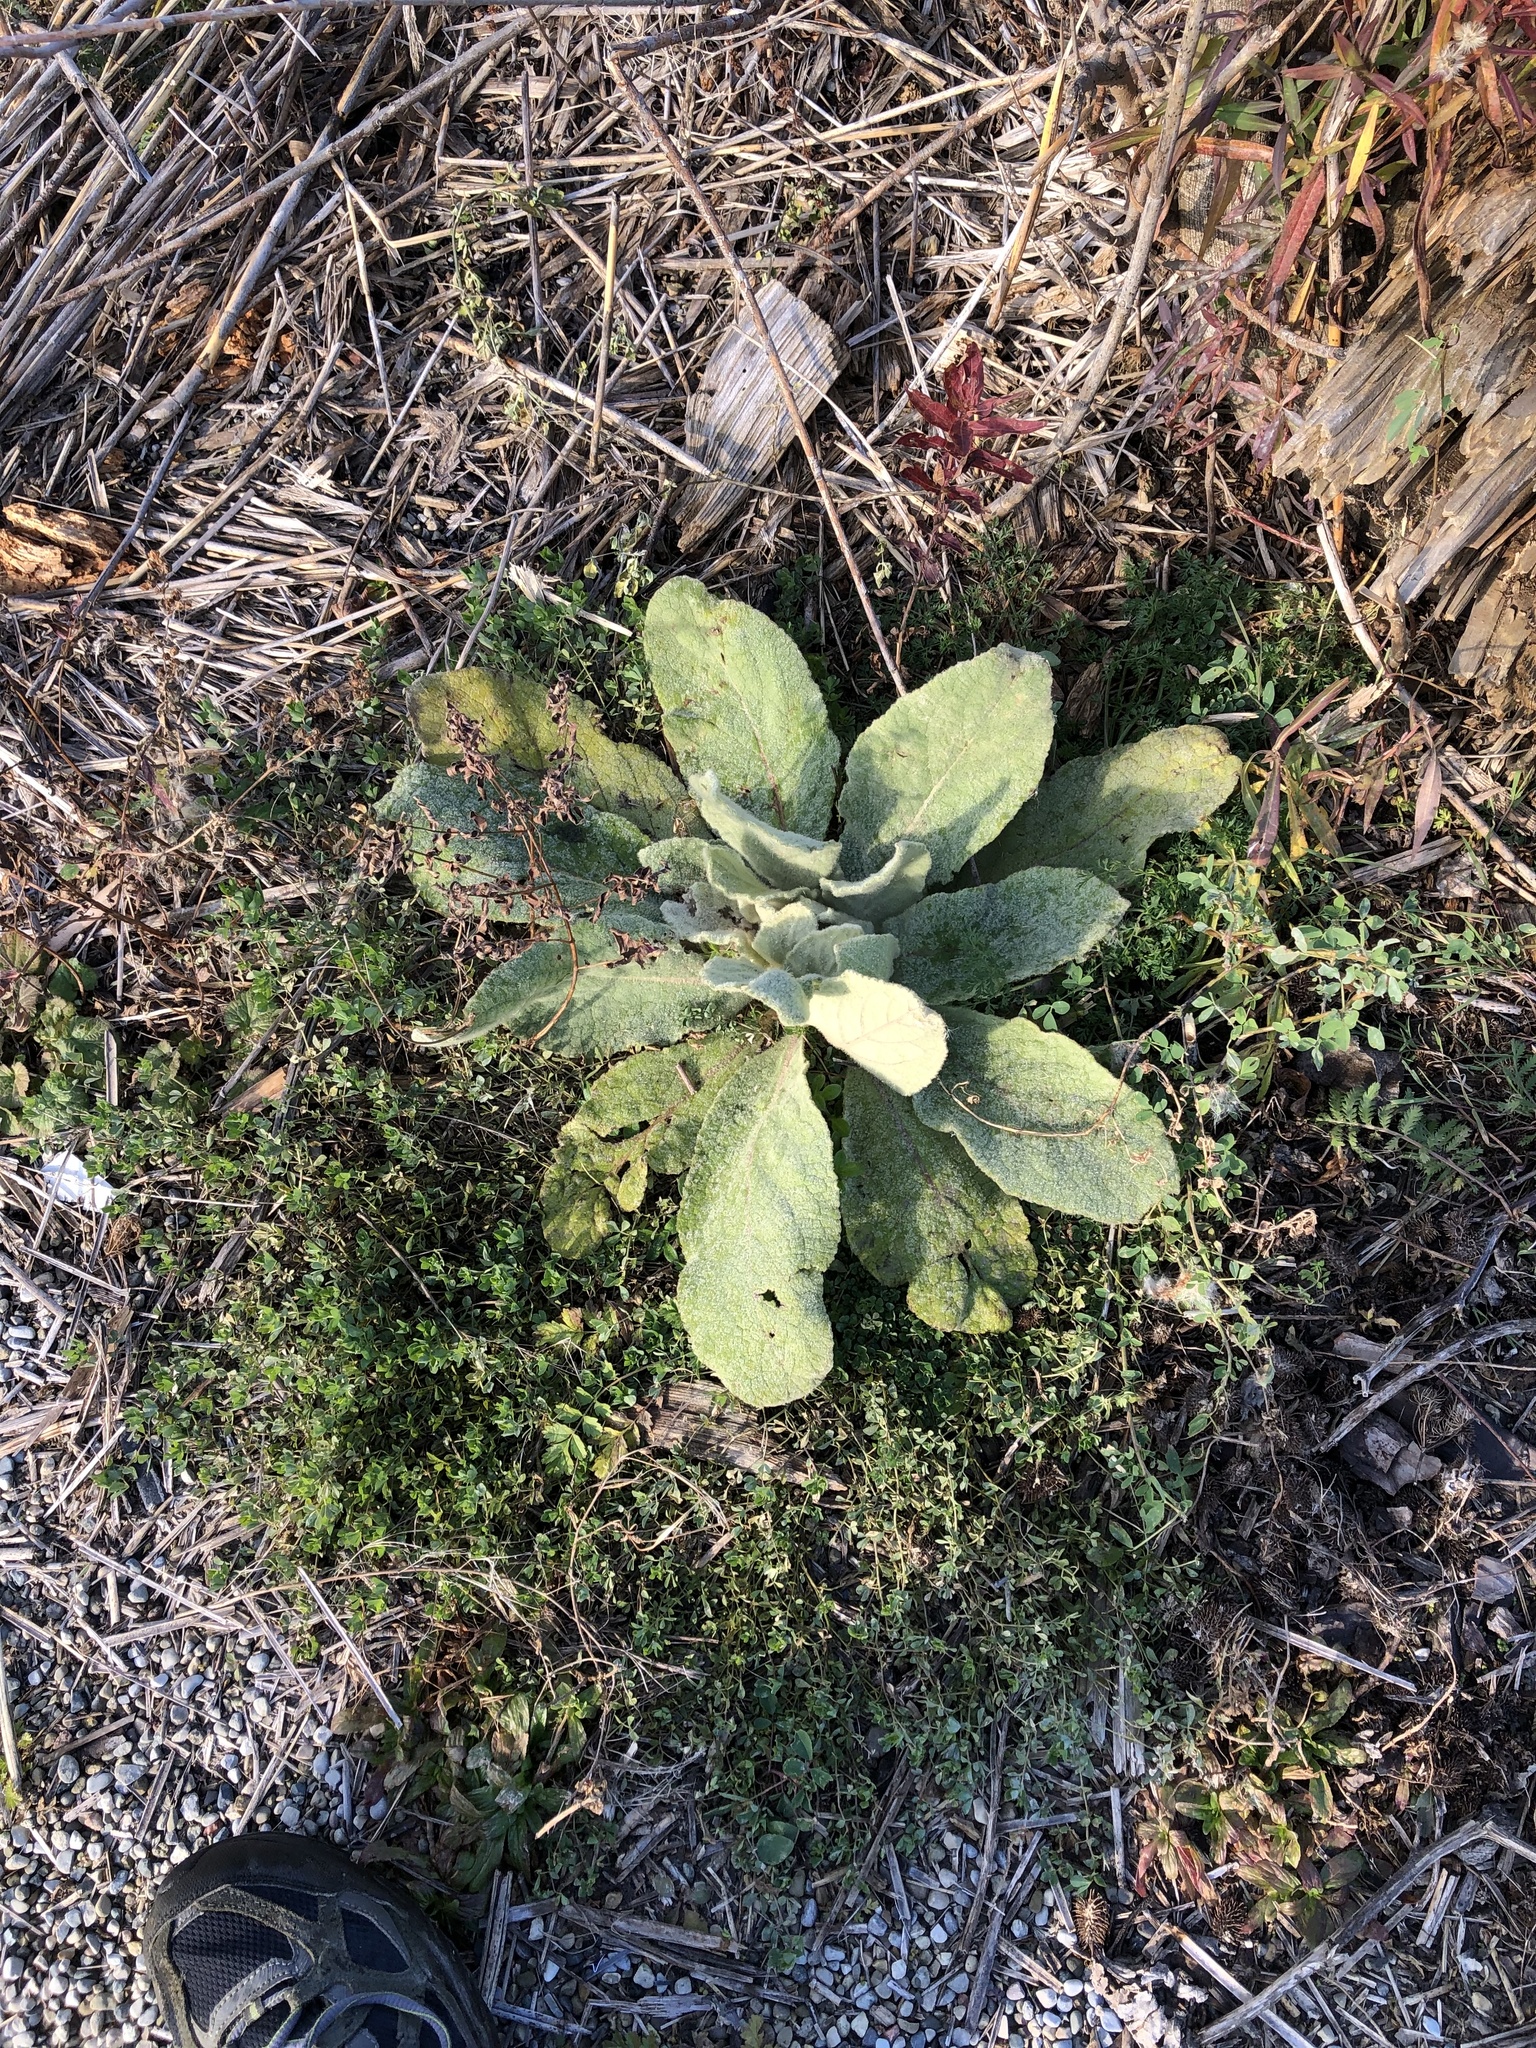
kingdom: Plantae
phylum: Tracheophyta
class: Magnoliopsida
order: Lamiales
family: Scrophulariaceae
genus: Verbascum
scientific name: Verbascum thapsus
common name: Common mullein
